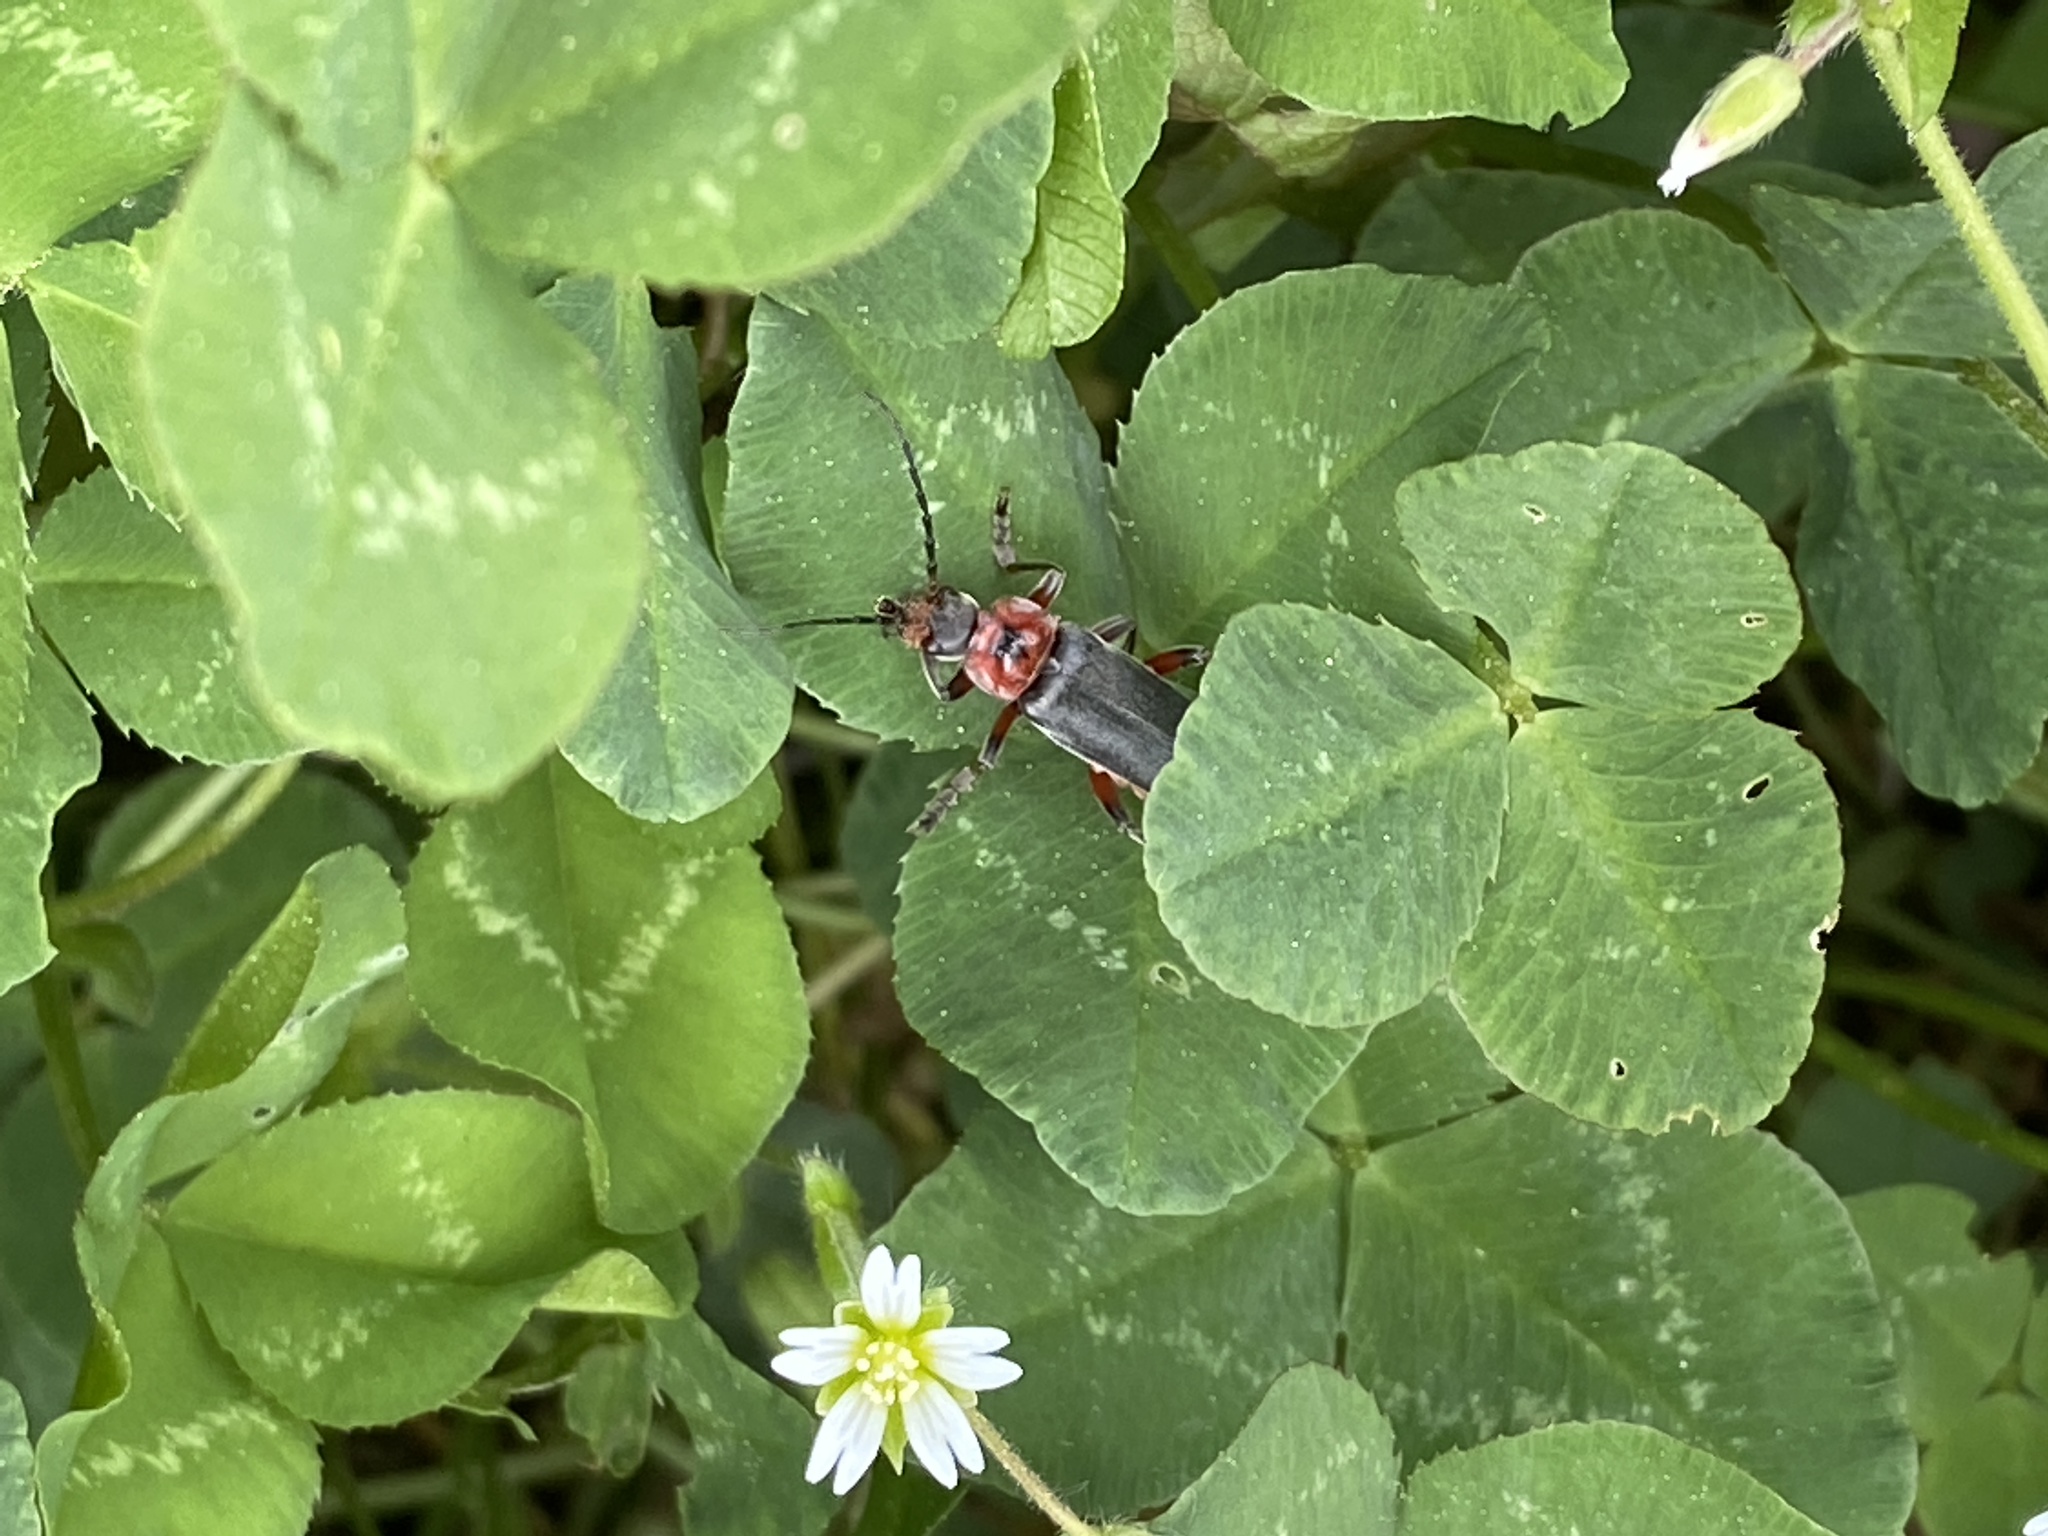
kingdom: Animalia
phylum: Arthropoda
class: Insecta
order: Coleoptera
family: Cantharidae
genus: Cantharis
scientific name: Cantharis rustica
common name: Soldier beetle
